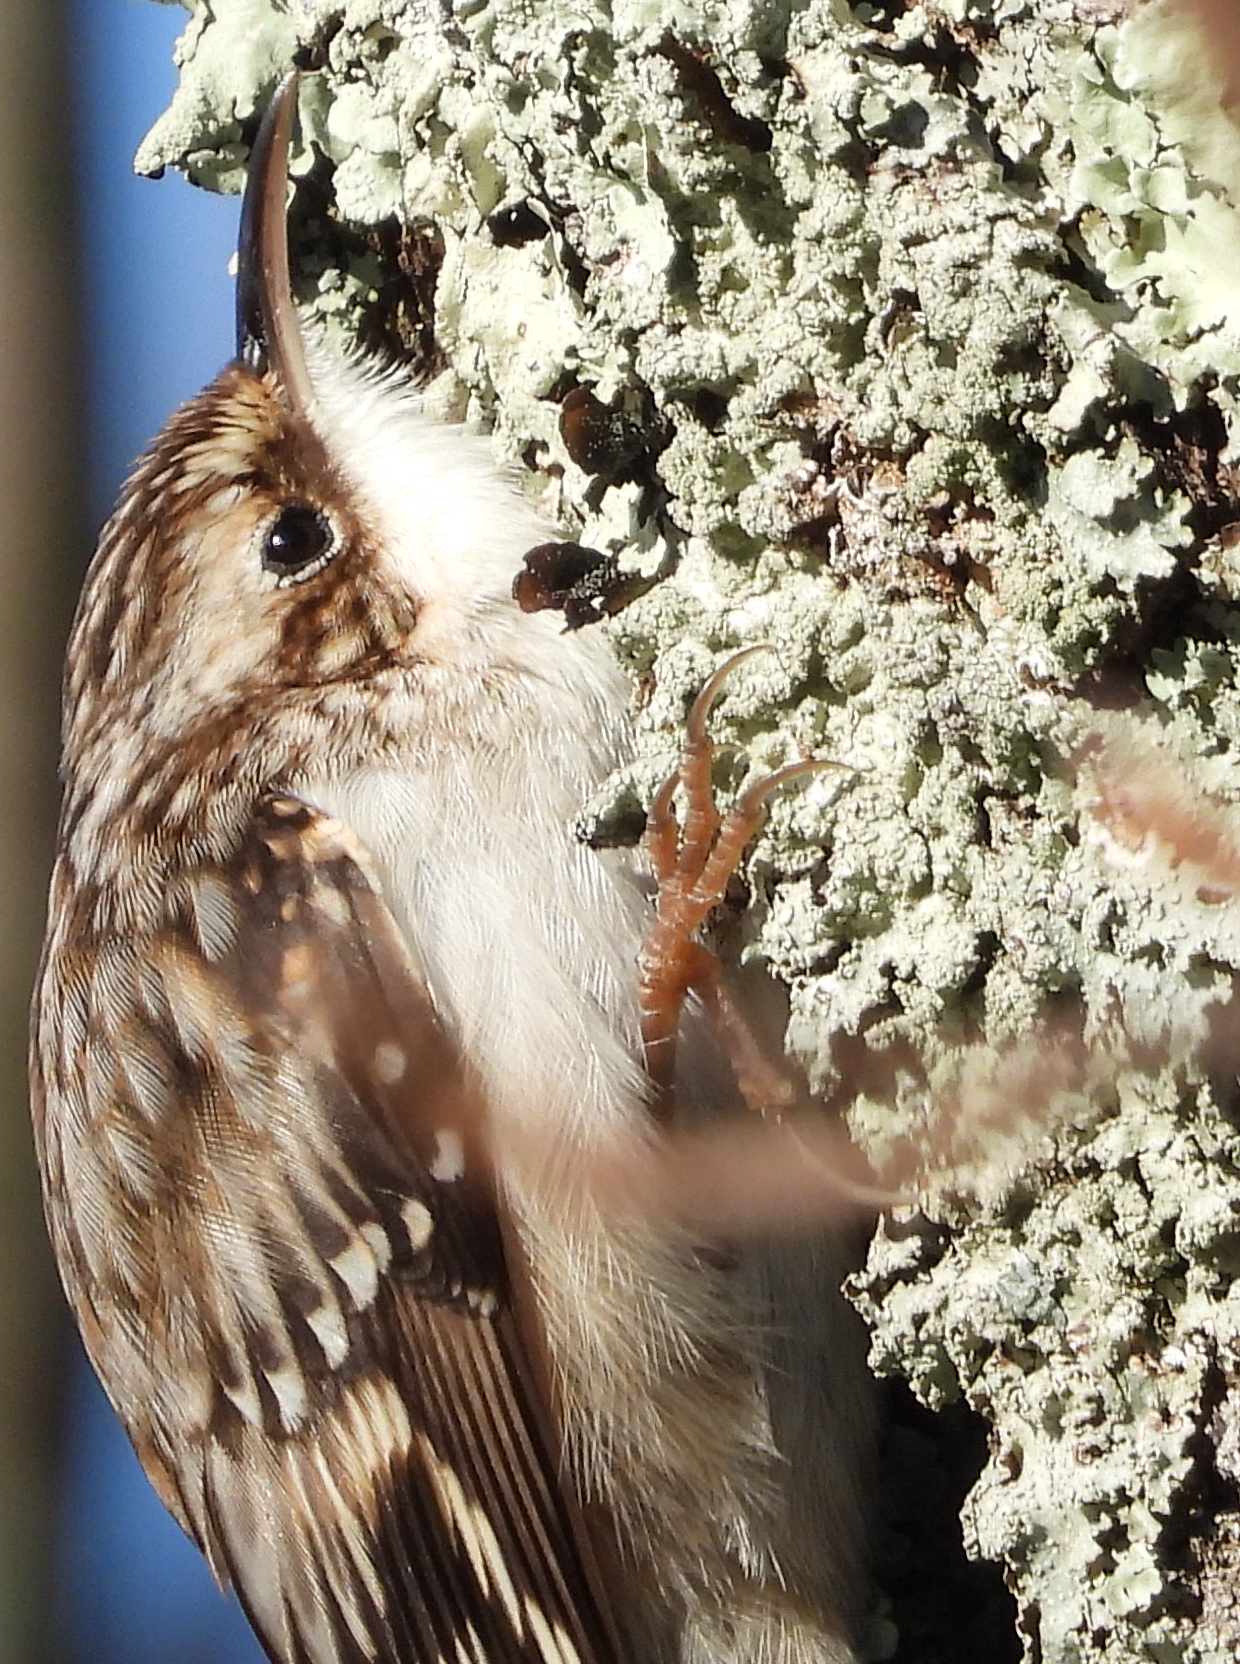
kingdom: Animalia
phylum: Chordata
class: Aves
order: Passeriformes
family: Certhiidae
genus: Certhia
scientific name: Certhia americana
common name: Brown creeper
